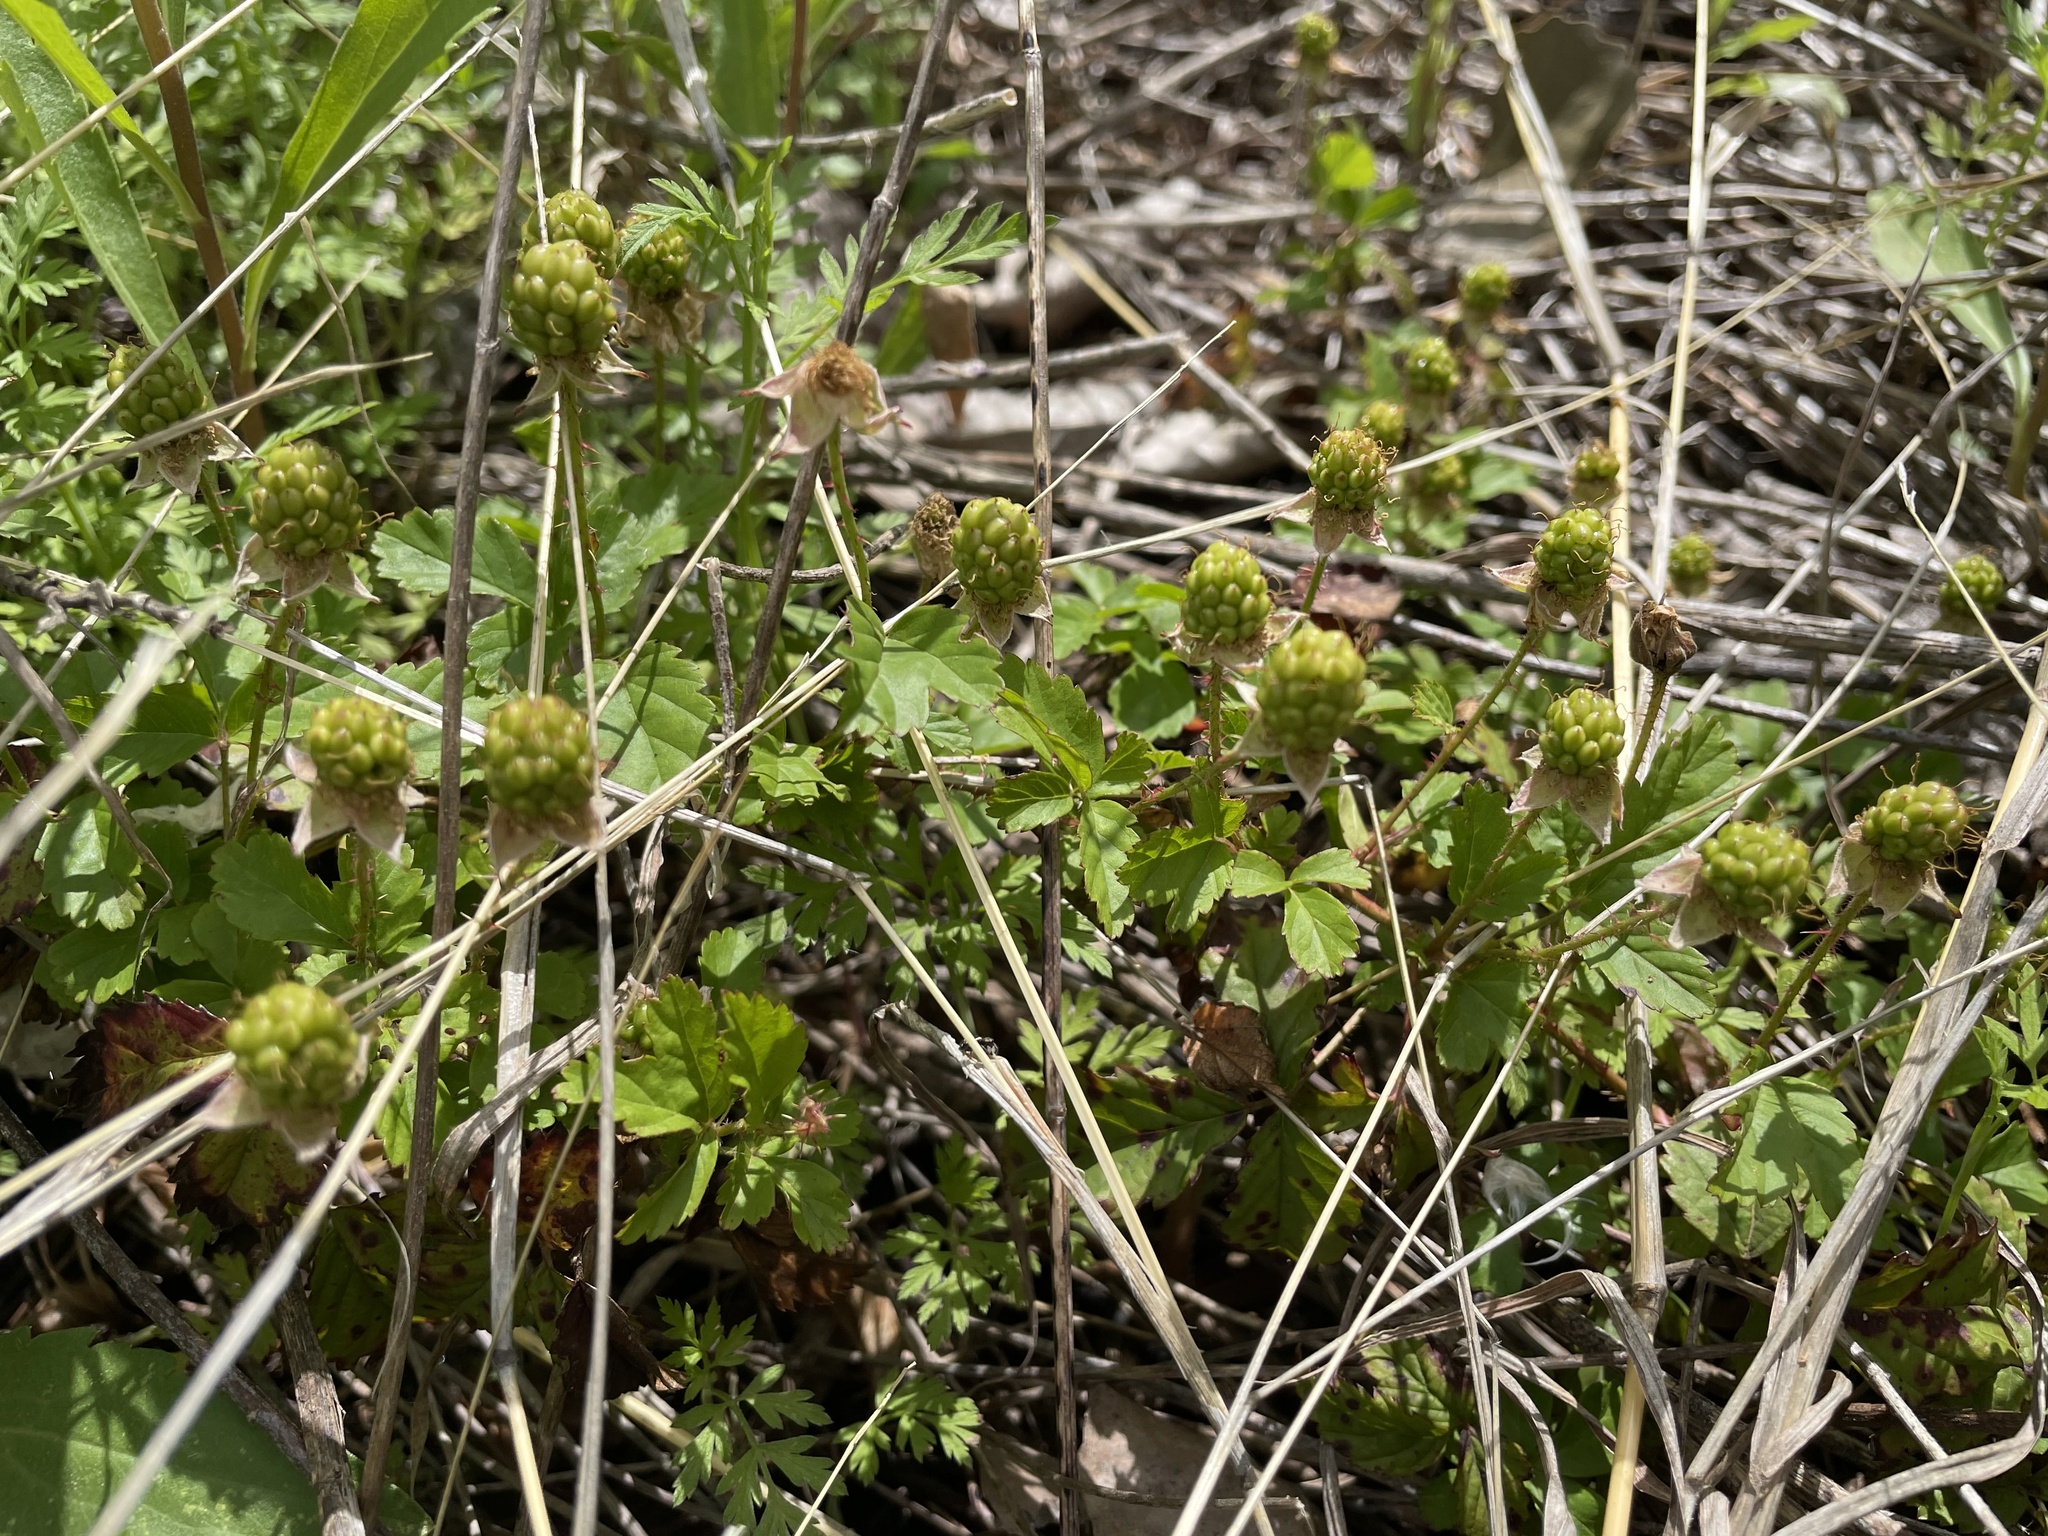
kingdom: Plantae
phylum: Tracheophyta
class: Magnoliopsida
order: Rosales
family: Rosaceae
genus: Rubus
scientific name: Rubus trivialis
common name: Southern dewberry
